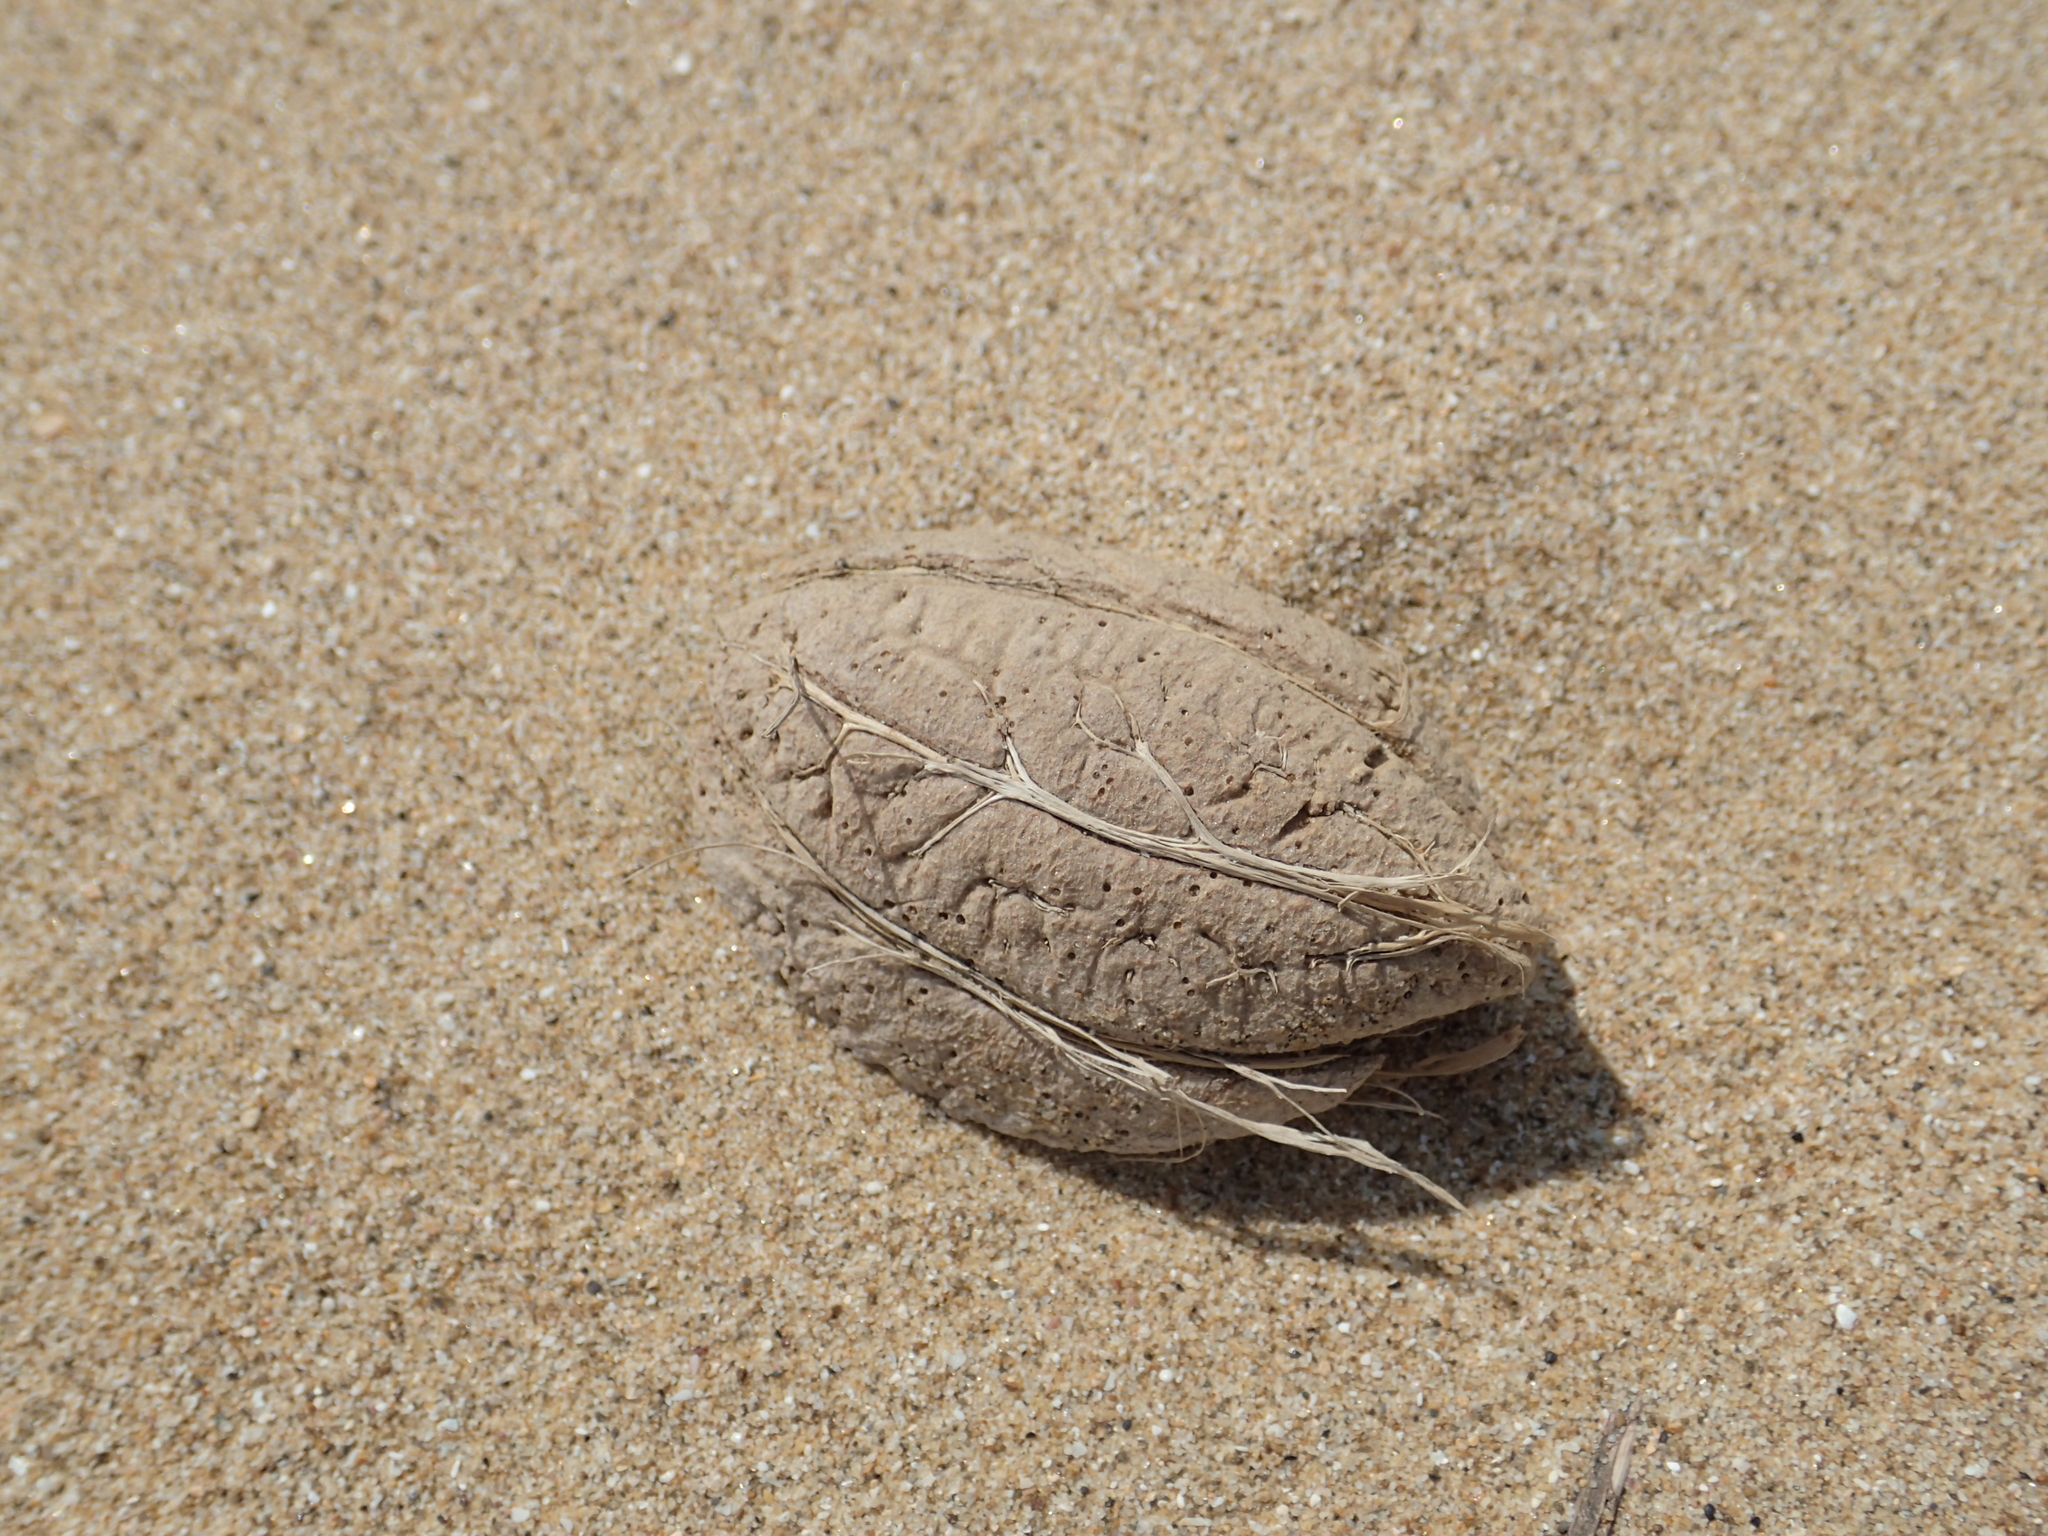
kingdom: Plantae
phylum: Tracheophyta
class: Magnoliopsida
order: Myrtales
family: Combretaceae
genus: Terminalia
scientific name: Terminalia catappa
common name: Tropical almond
